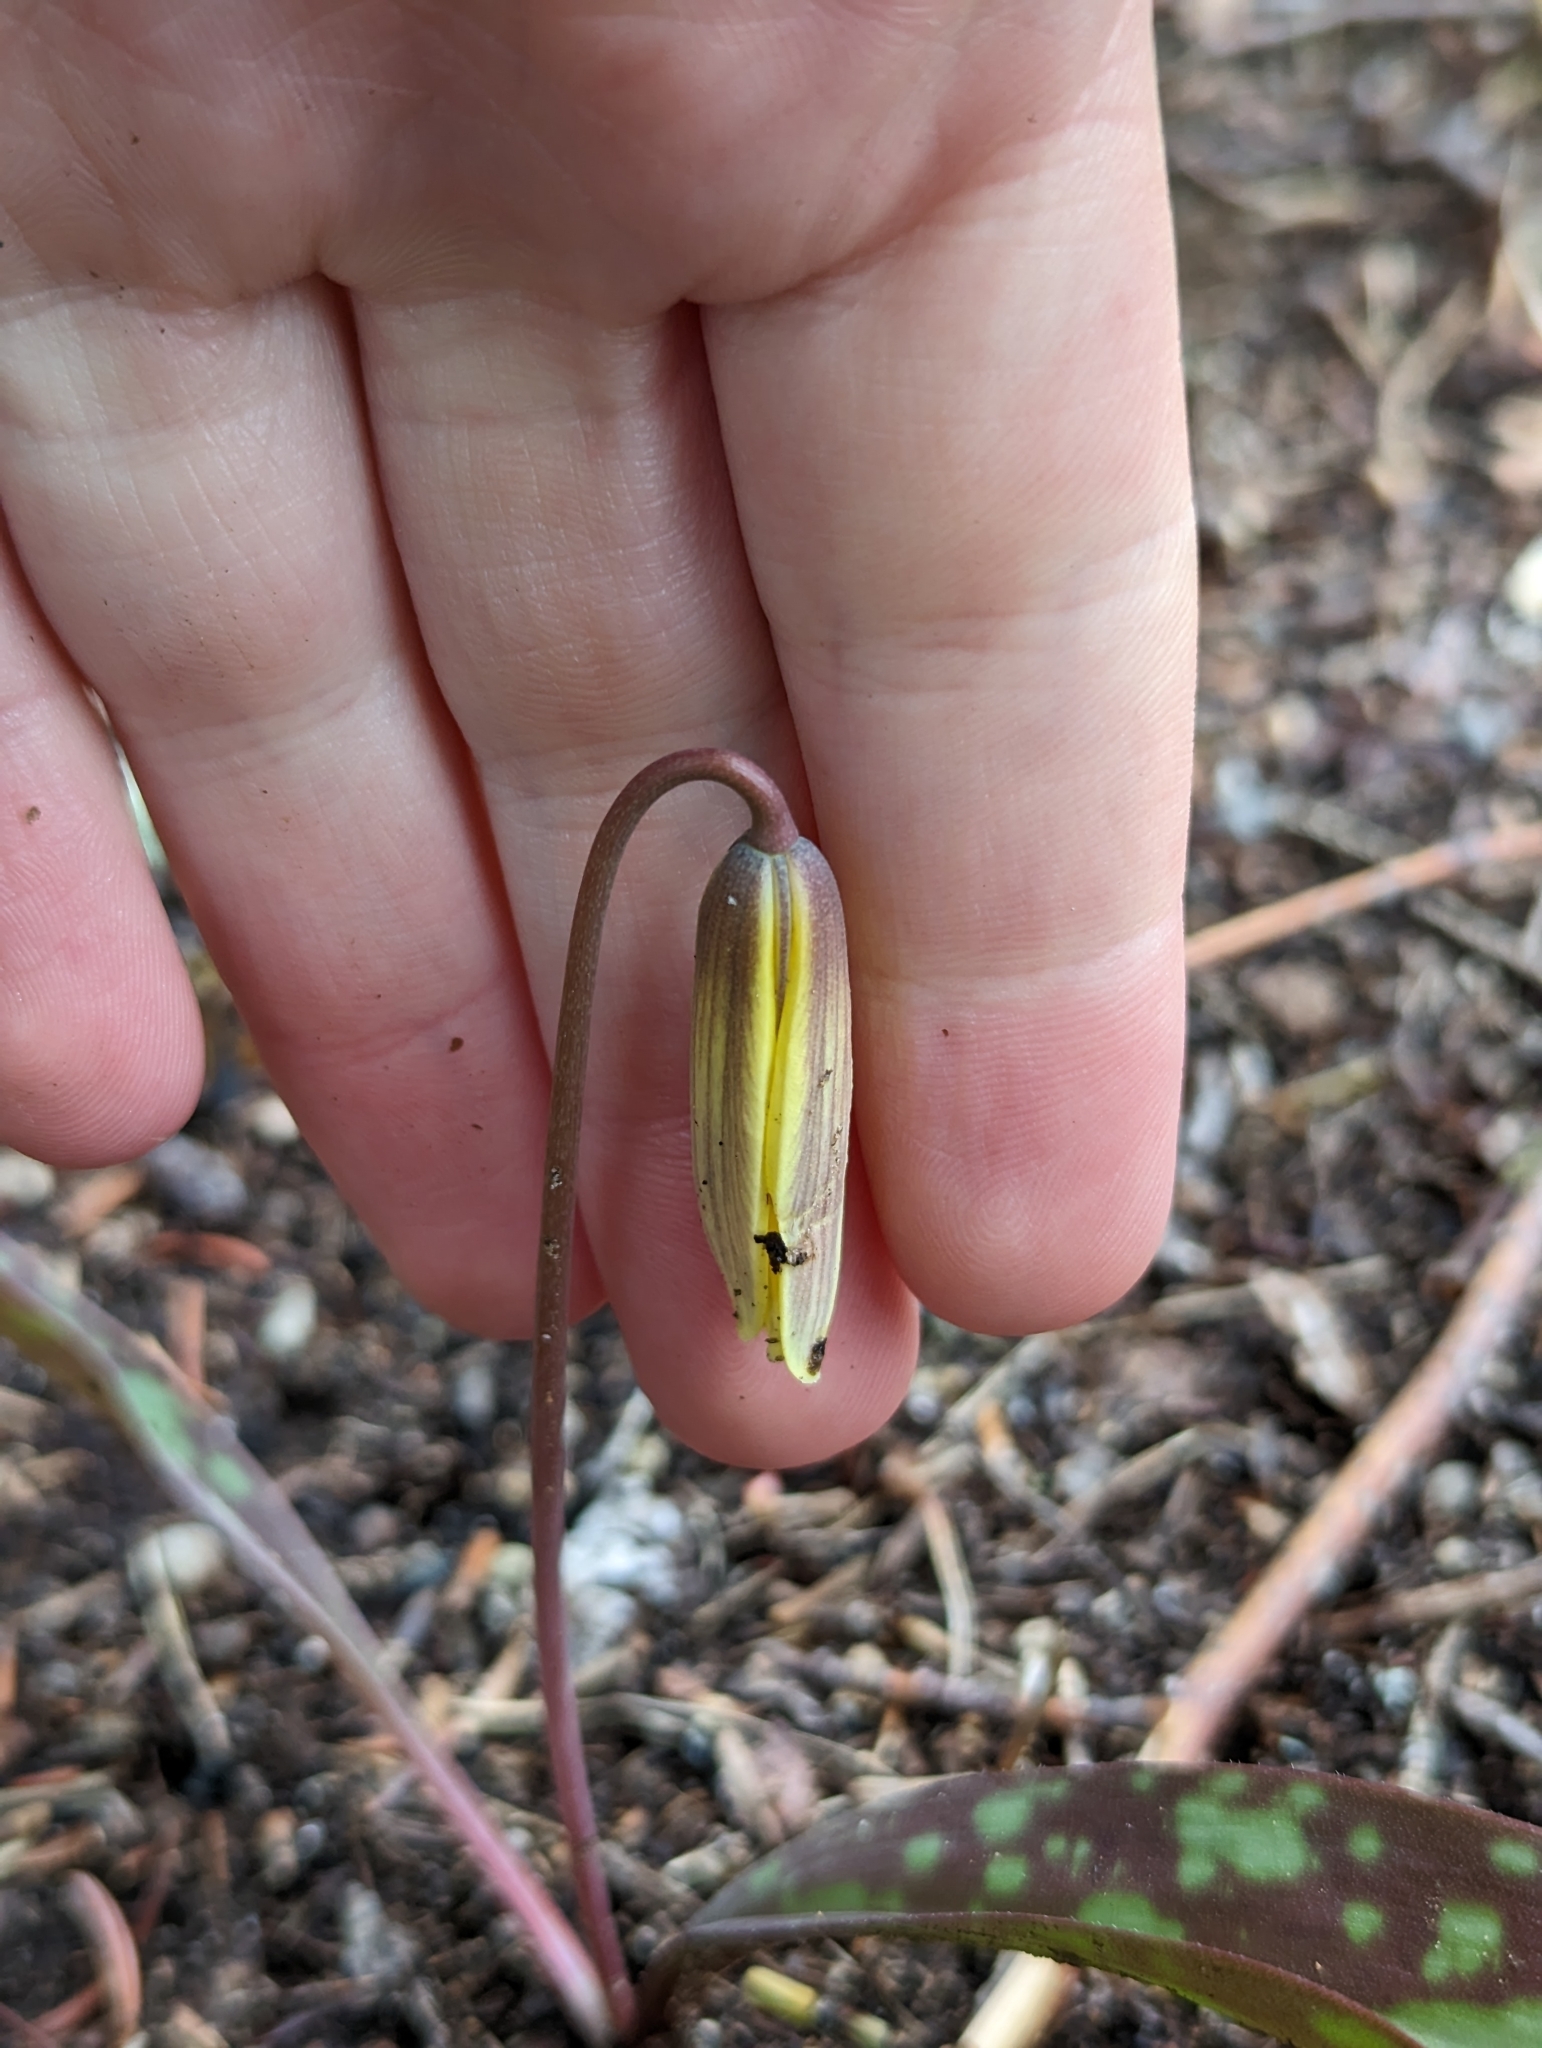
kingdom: Plantae
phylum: Tracheophyta
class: Liliopsida
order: Liliales
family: Liliaceae
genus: Erythronium
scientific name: Erythronium americanum
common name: Yellow adder's-tongue
